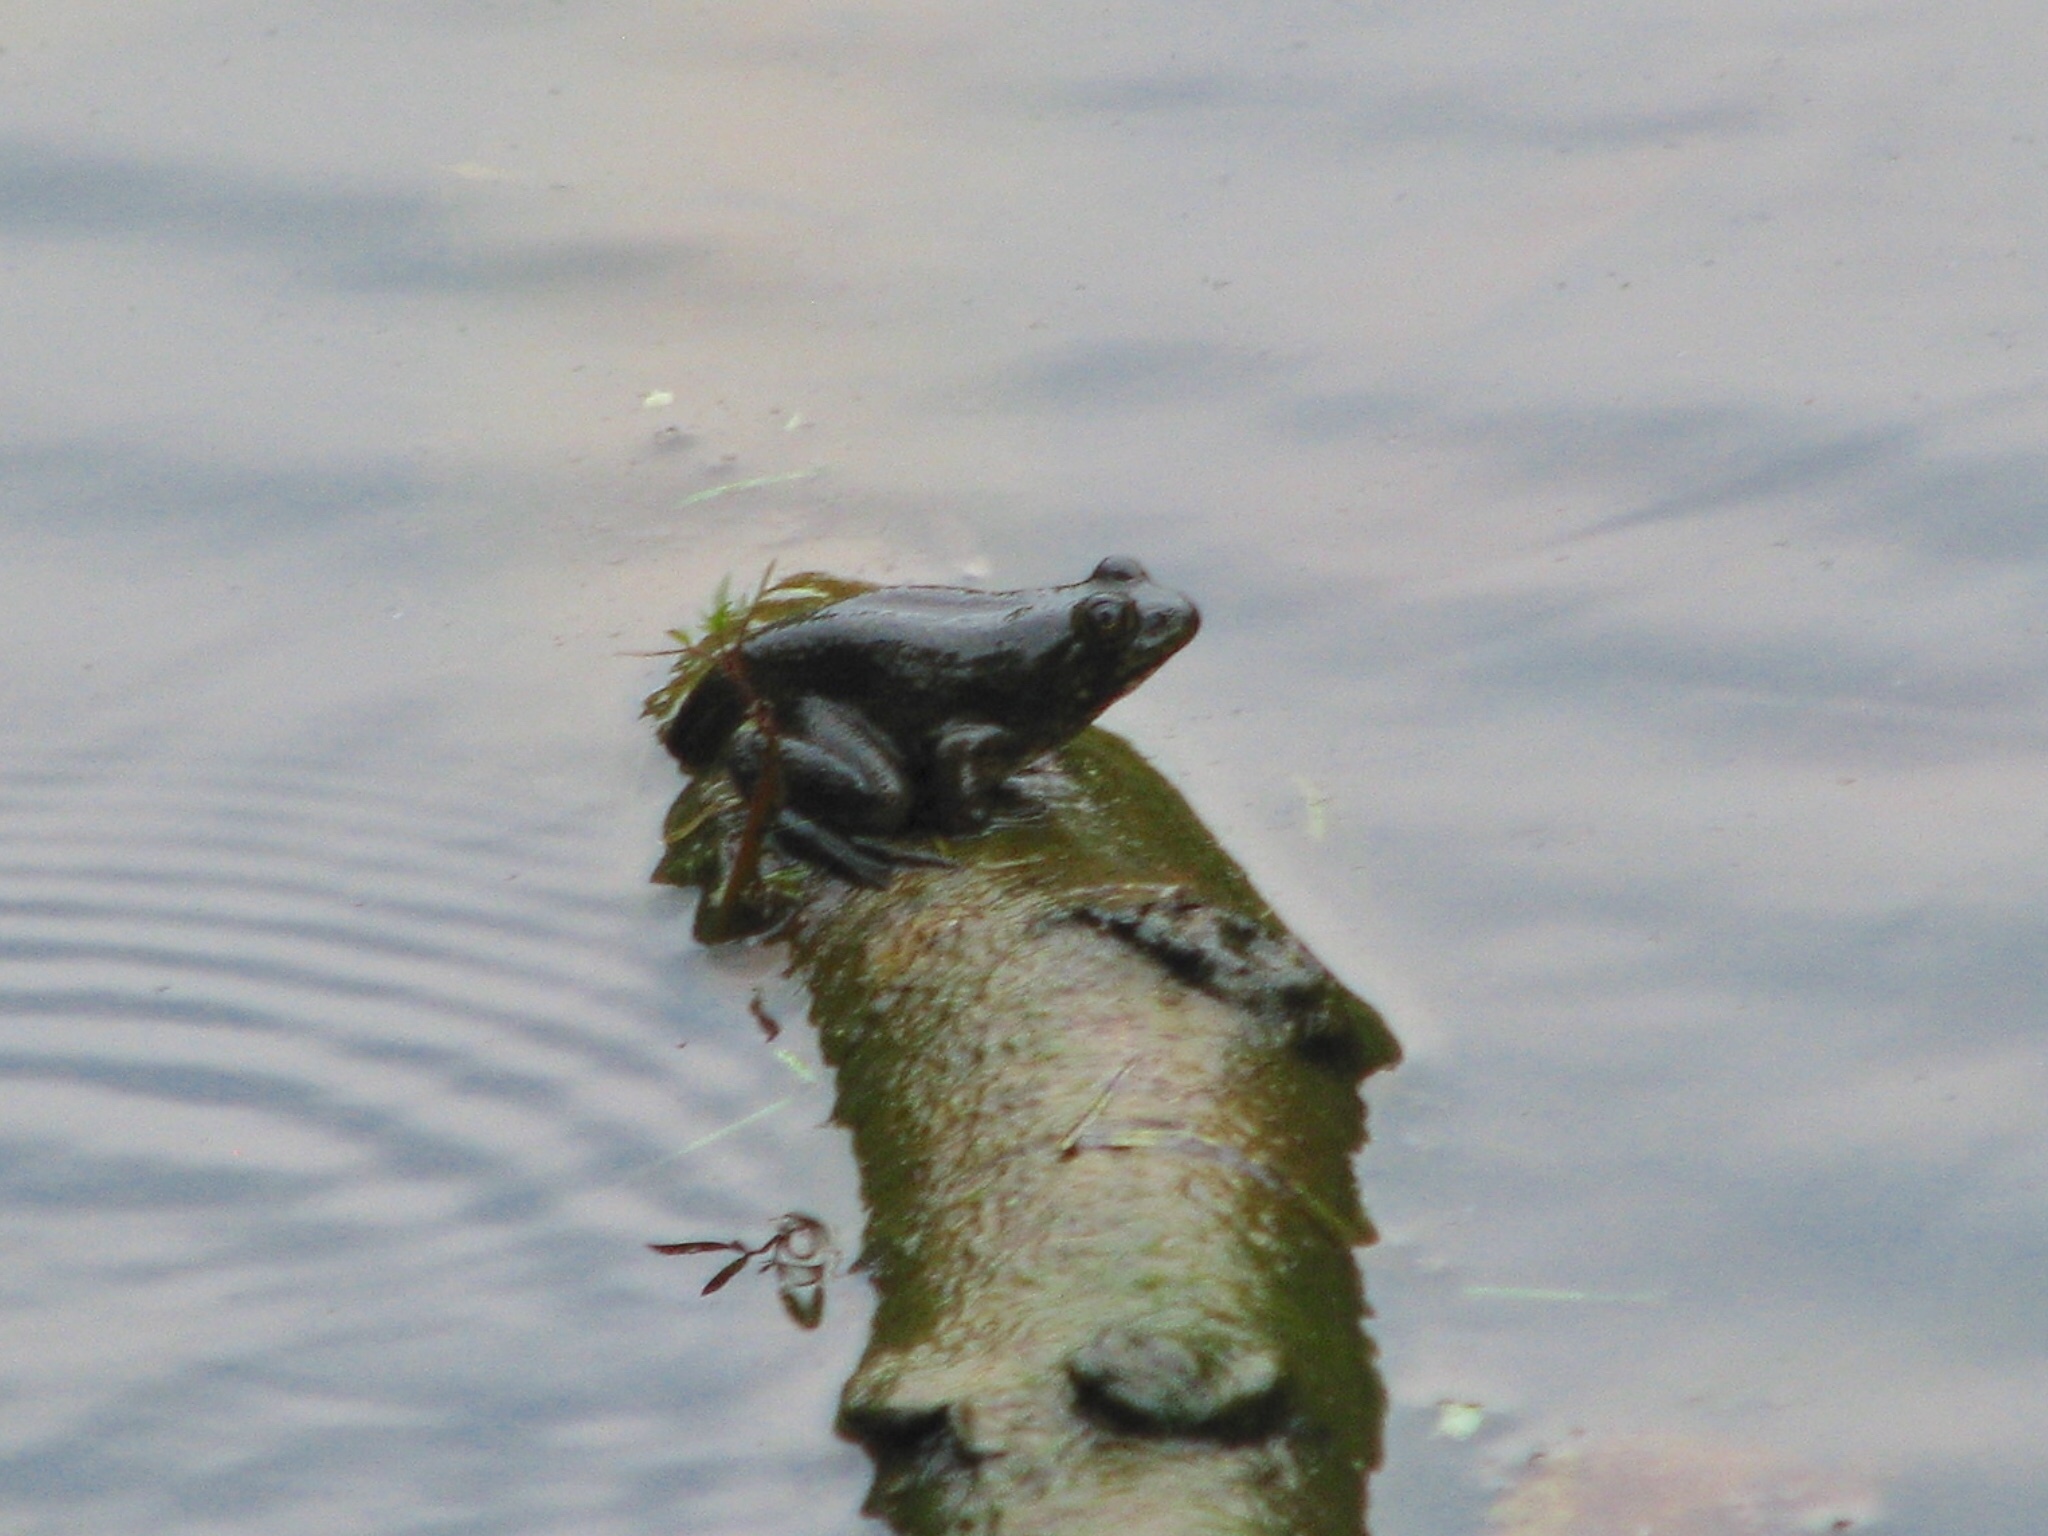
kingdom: Animalia
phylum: Chordata
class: Amphibia
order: Anura
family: Ranidae
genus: Lithobates
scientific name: Lithobates catesbeianus
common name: American bullfrog
